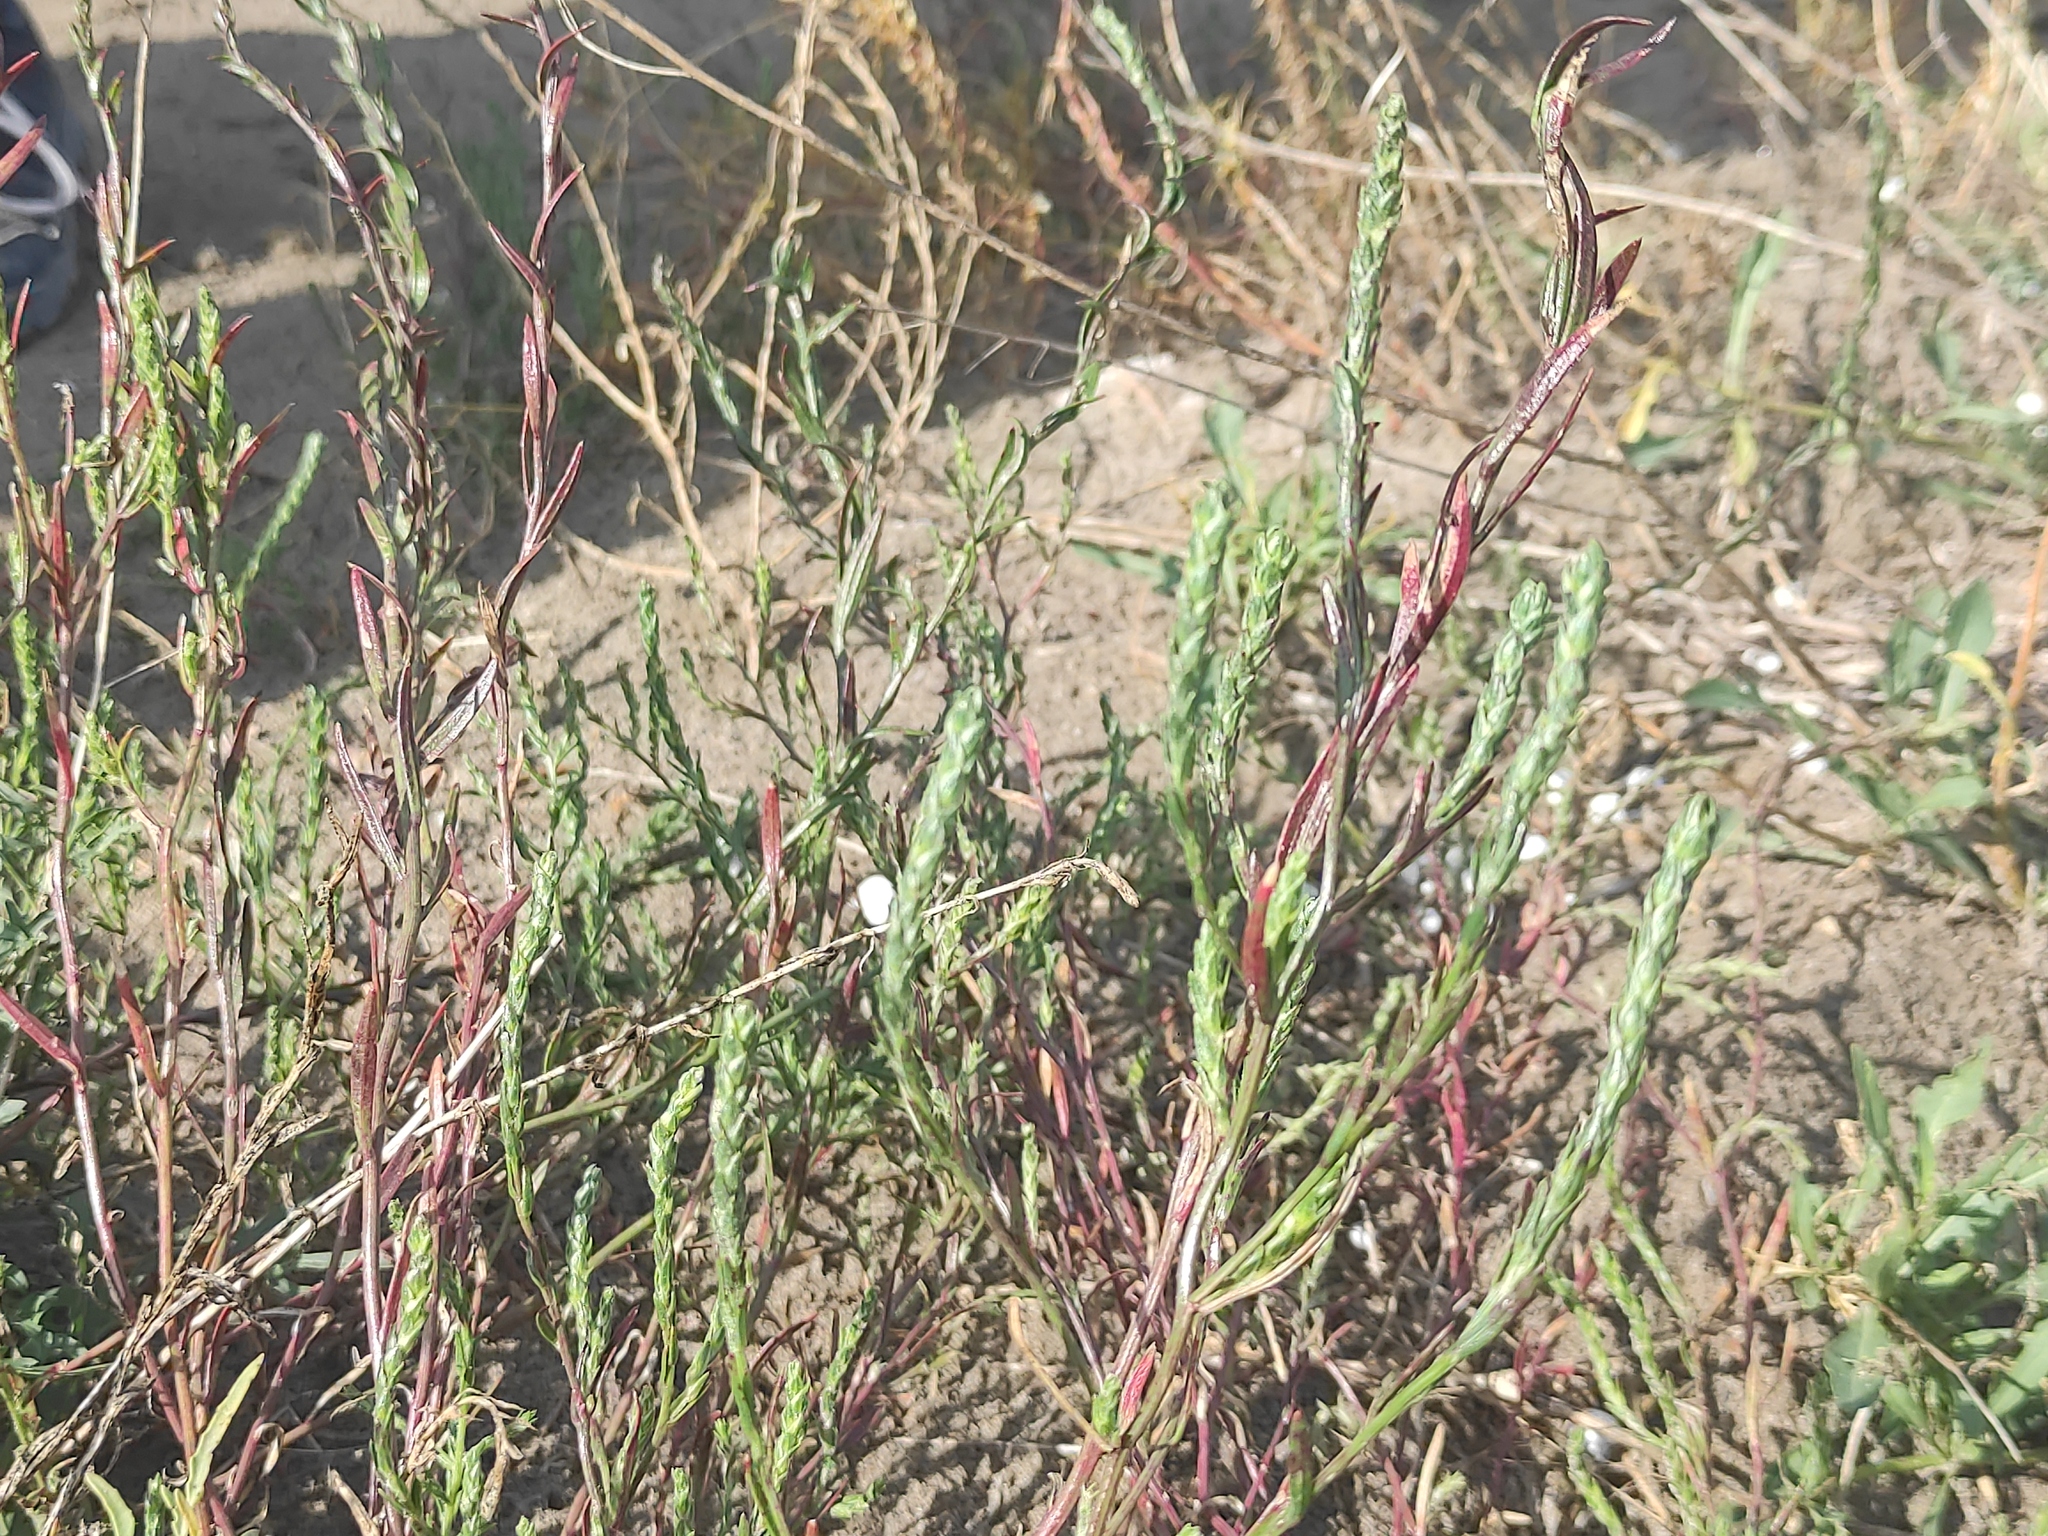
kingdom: Plantae
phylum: Tracheophyta
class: Magnoliopsida
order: Caryophyllales
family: Amaranthaceae
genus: Corispermum
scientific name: Corispermum gallicum
